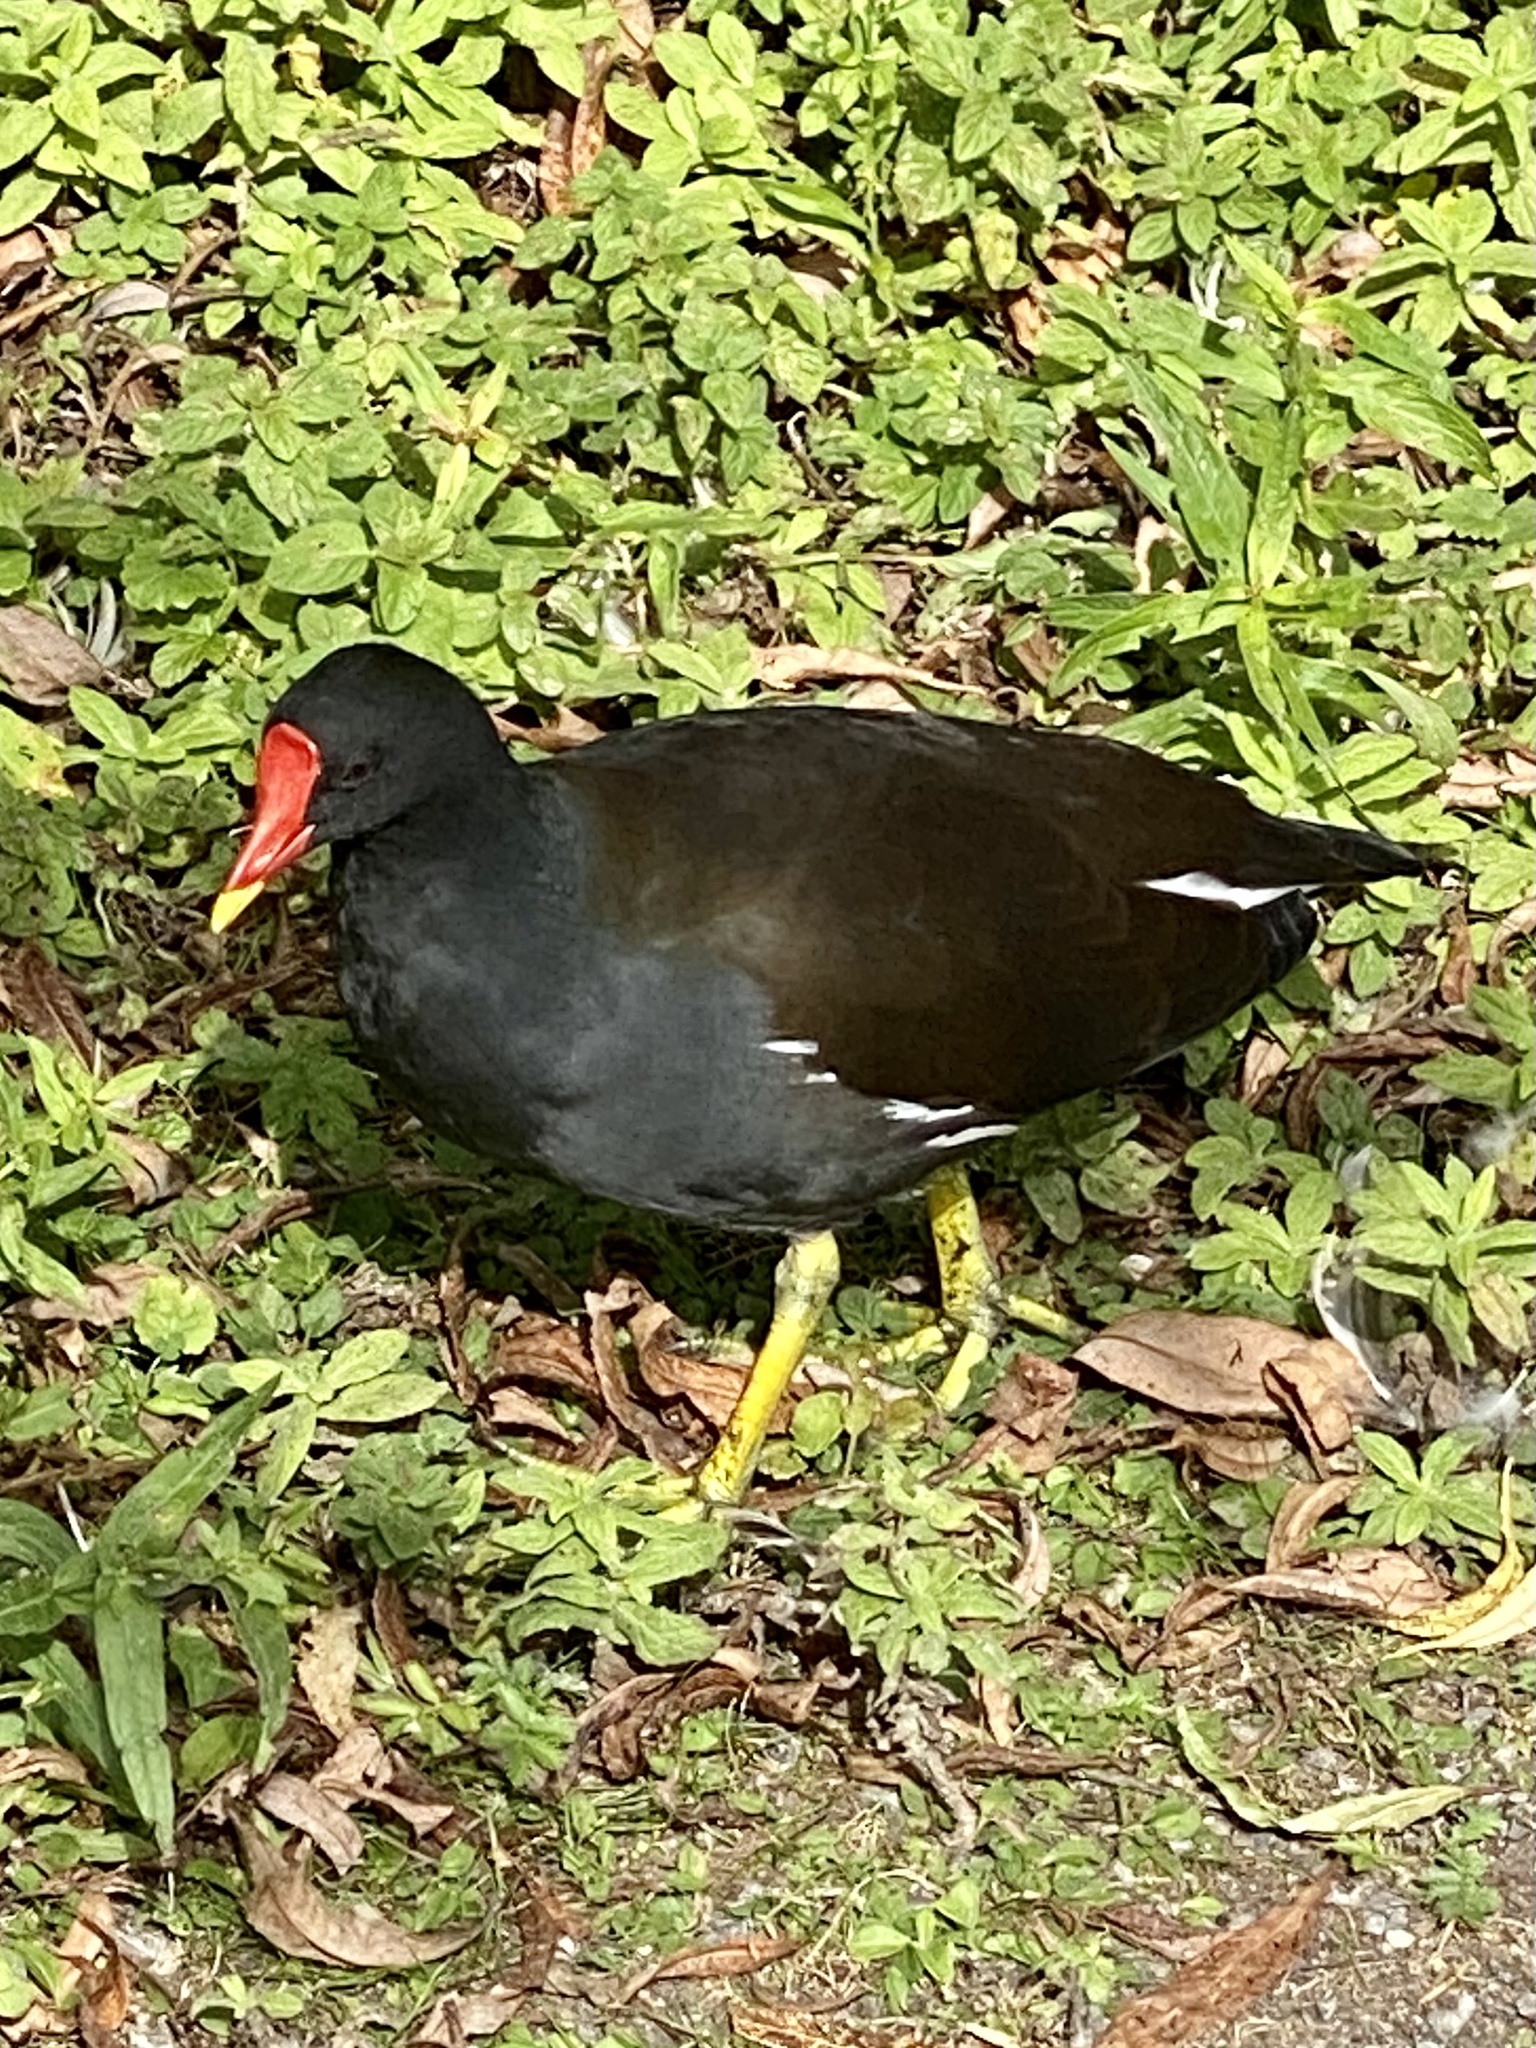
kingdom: Animalia
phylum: Chordata
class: Aves
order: Gruiformes
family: Rallidae
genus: Gallinula
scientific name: Gallinula chloropus
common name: Common moorhen
